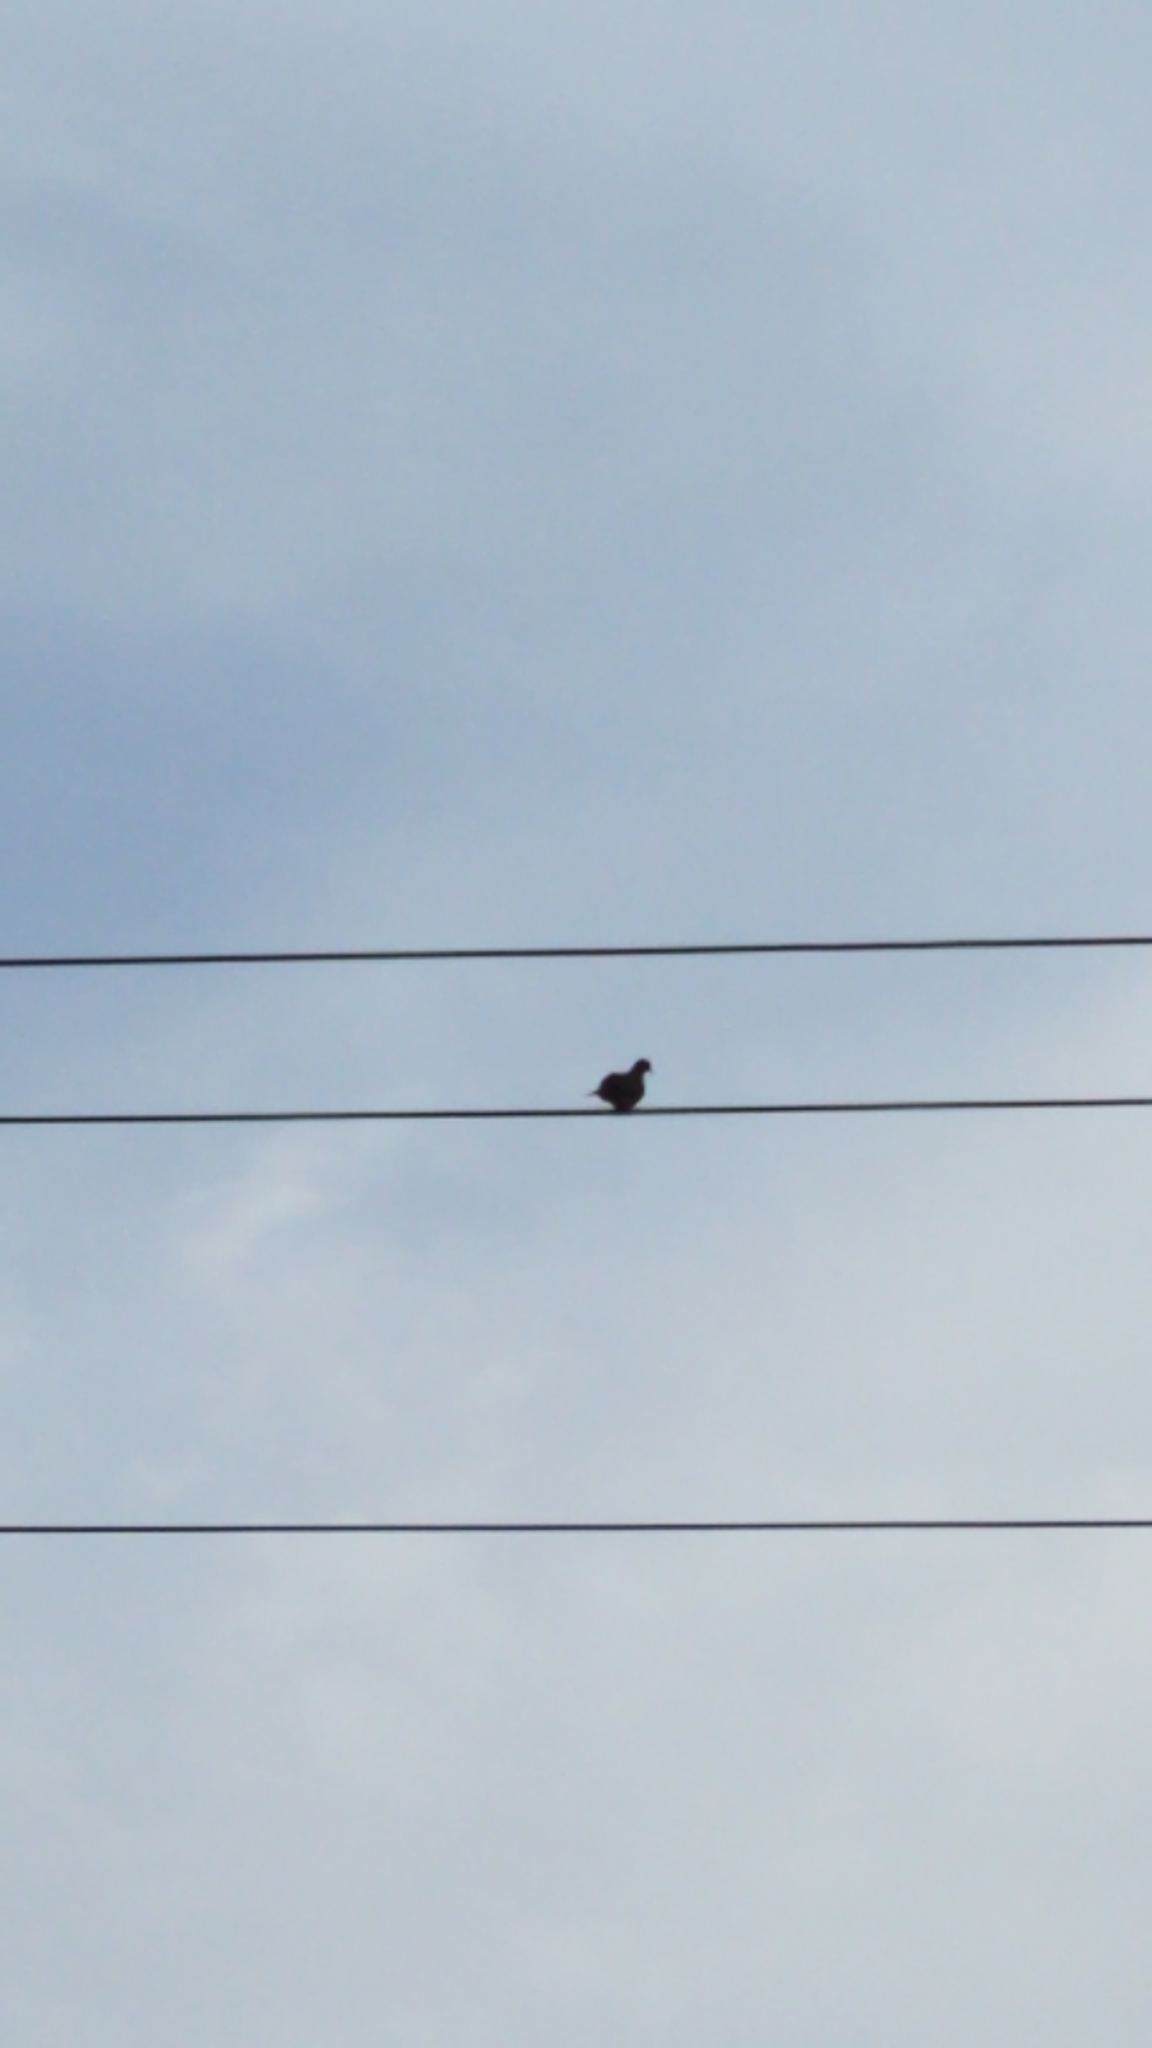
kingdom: Animalia
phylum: Chordata
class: Aves
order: Columbiformes
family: Columbidae
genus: Zenaida
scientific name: Zenaida macroura
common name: Mourning dove
